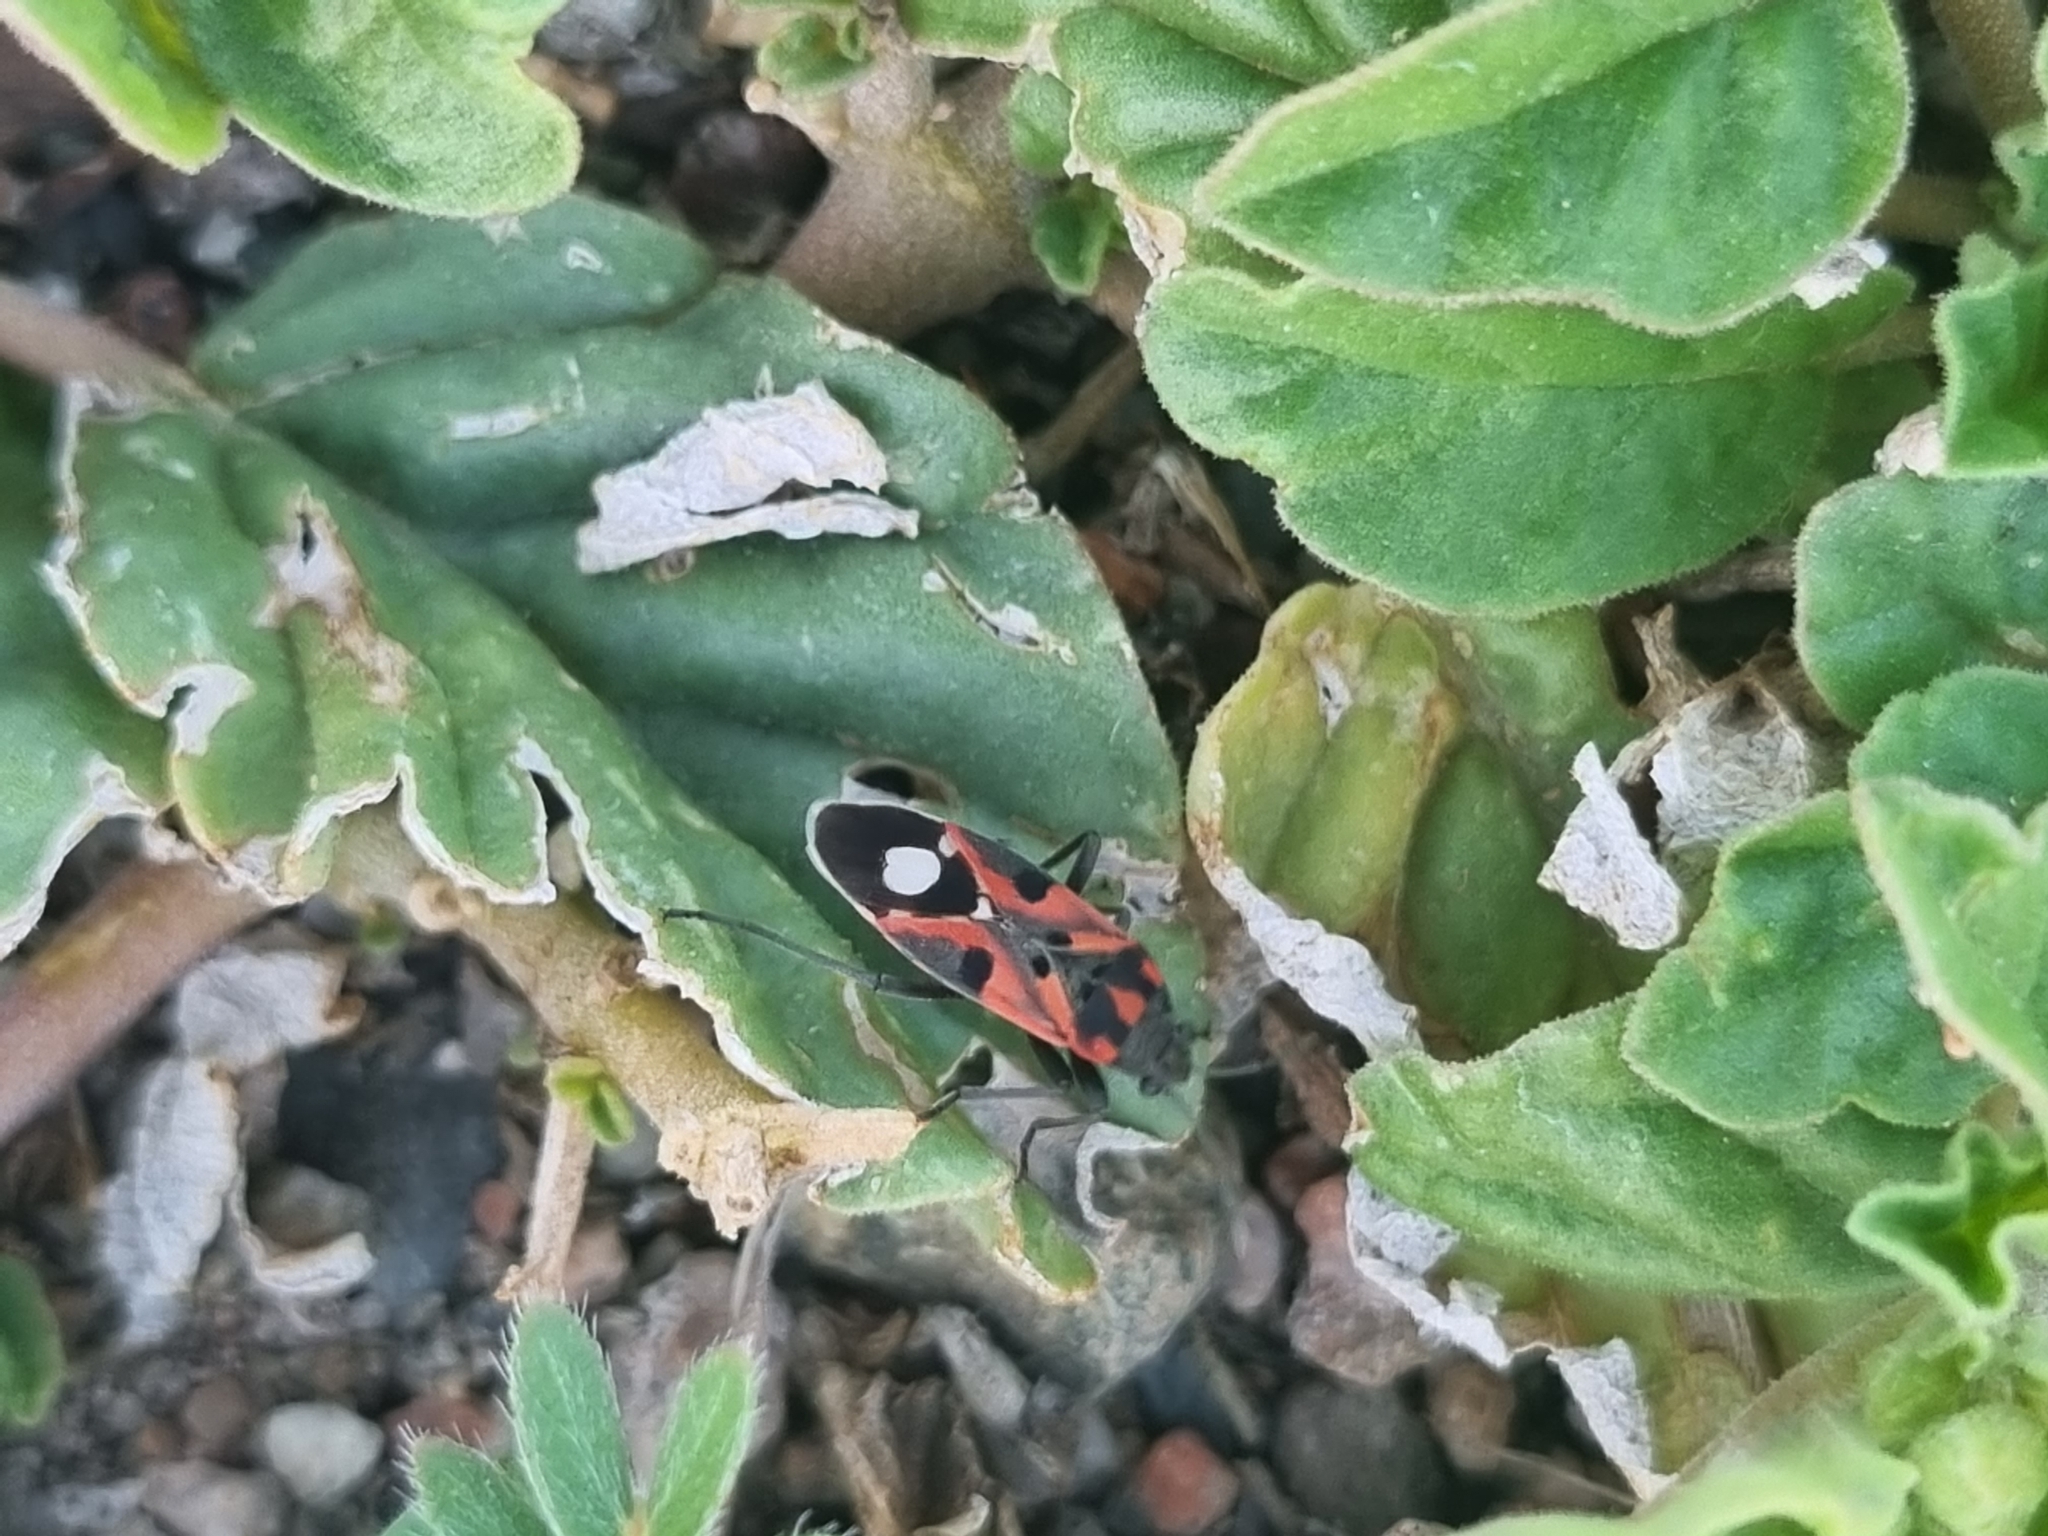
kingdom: Animalia
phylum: Arthropoda
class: Insecta
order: Hemiptera
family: Lygaeidae
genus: Lygaeus
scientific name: Lygaeus alboornatus
